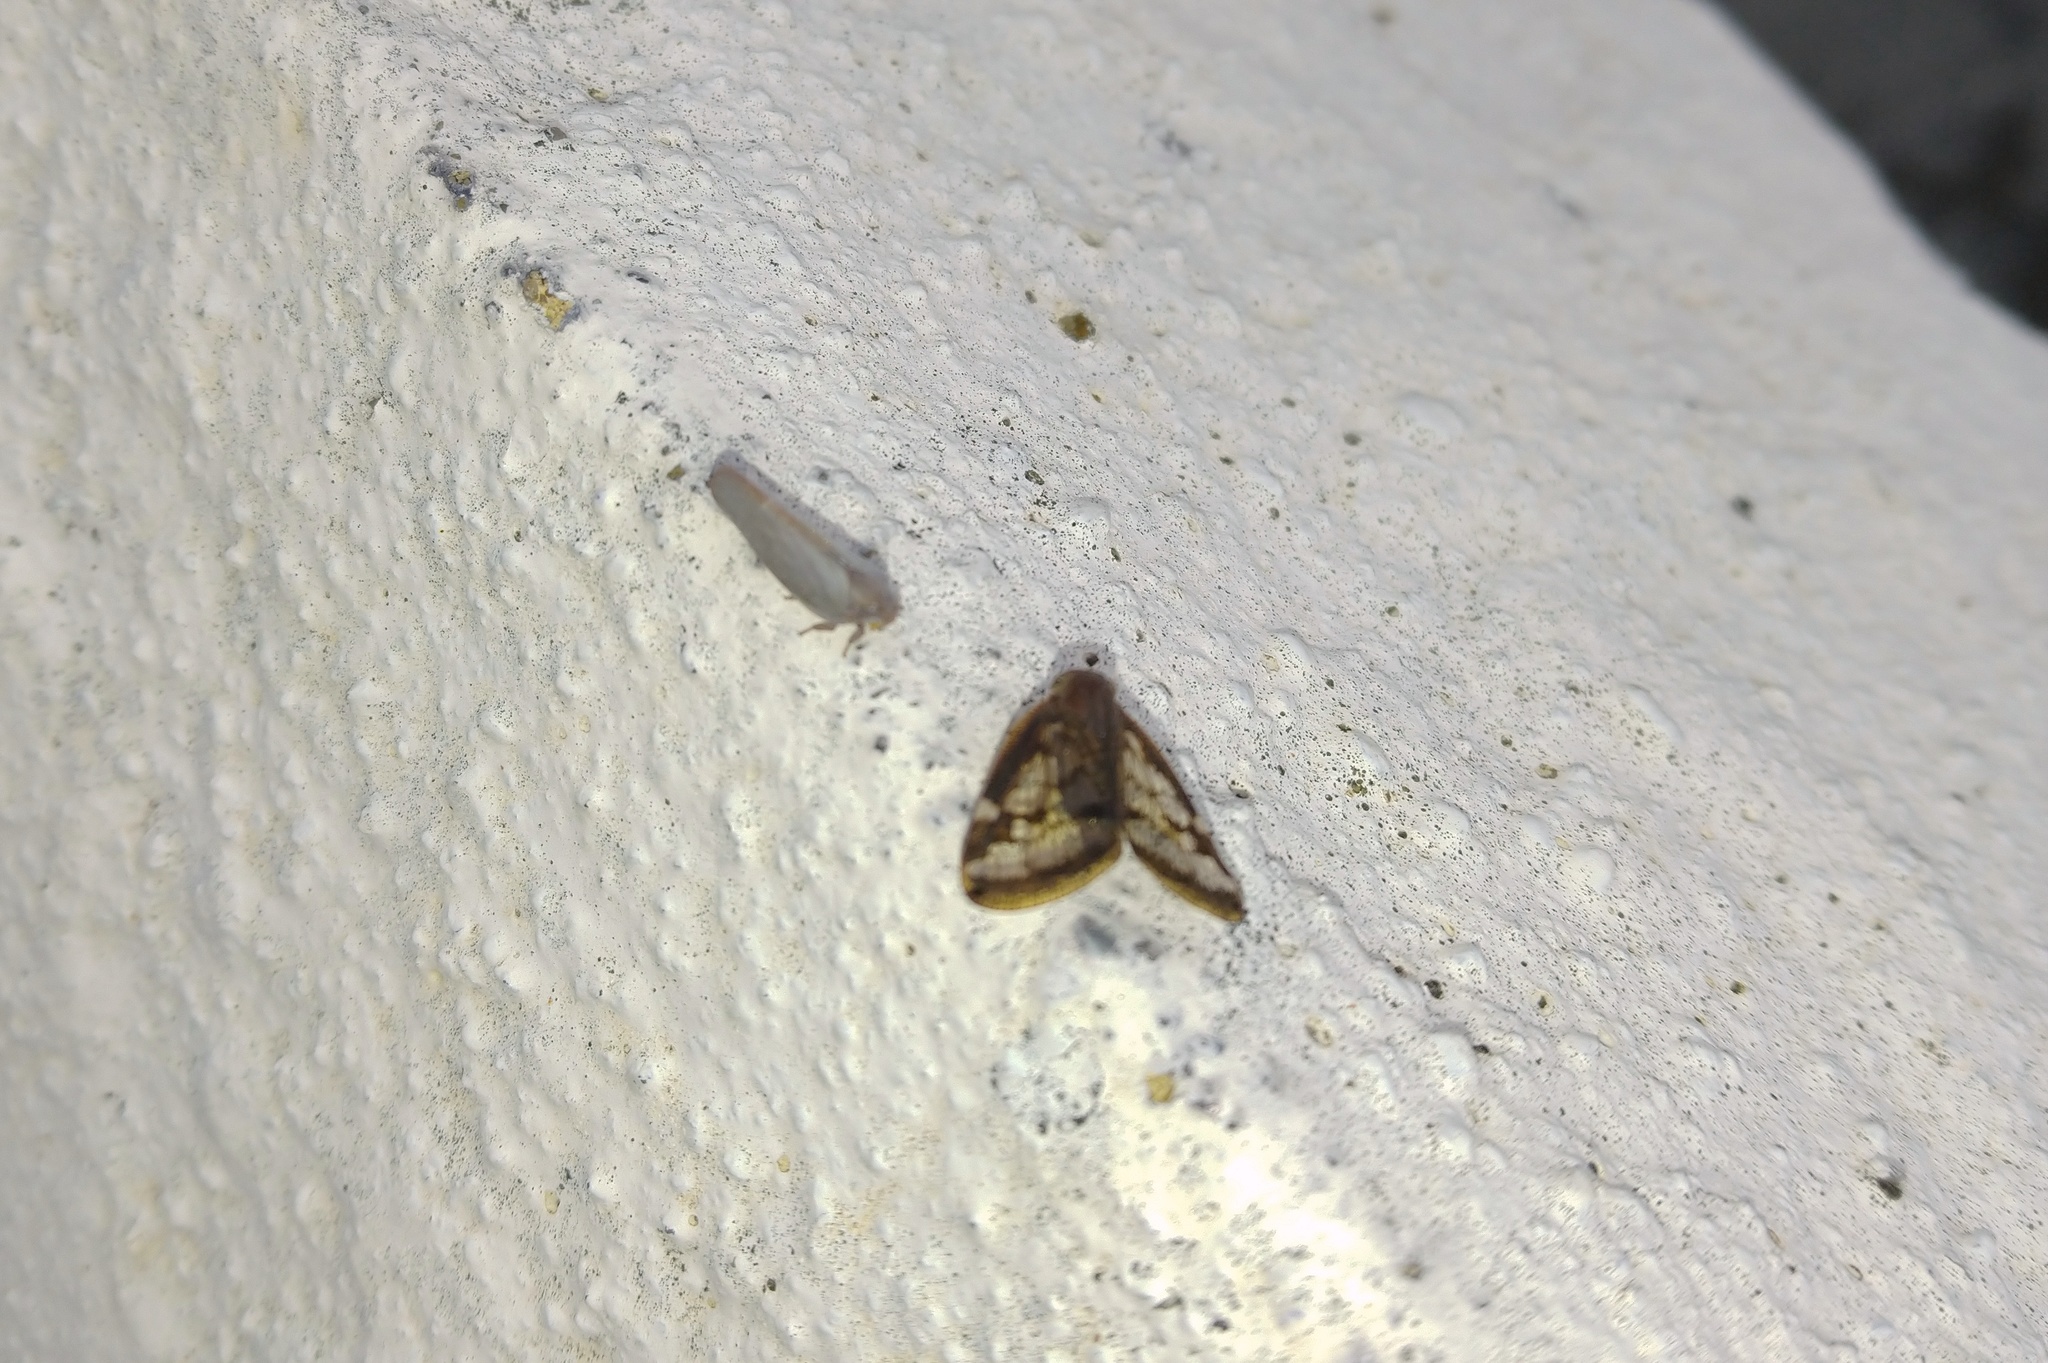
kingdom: Animalia
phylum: Arthropoda
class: Insecta
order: Hemiptera
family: Flatidae
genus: Anzora
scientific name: Anzora unicolor
